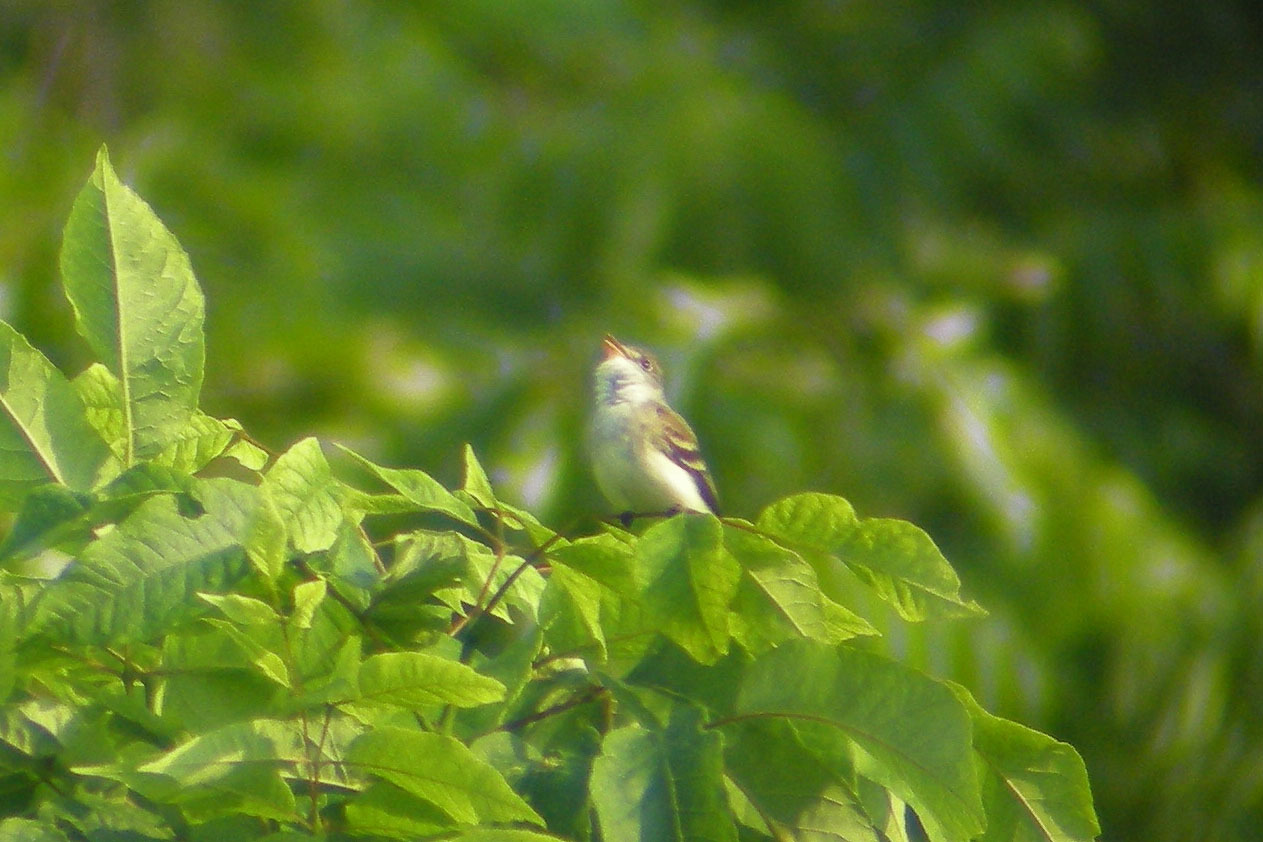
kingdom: Animalia
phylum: Chordata
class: Aves
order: Passeriformes
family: Tyrannidae
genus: Empidonax
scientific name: Empidonax traillii
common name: Willow flycatcher
